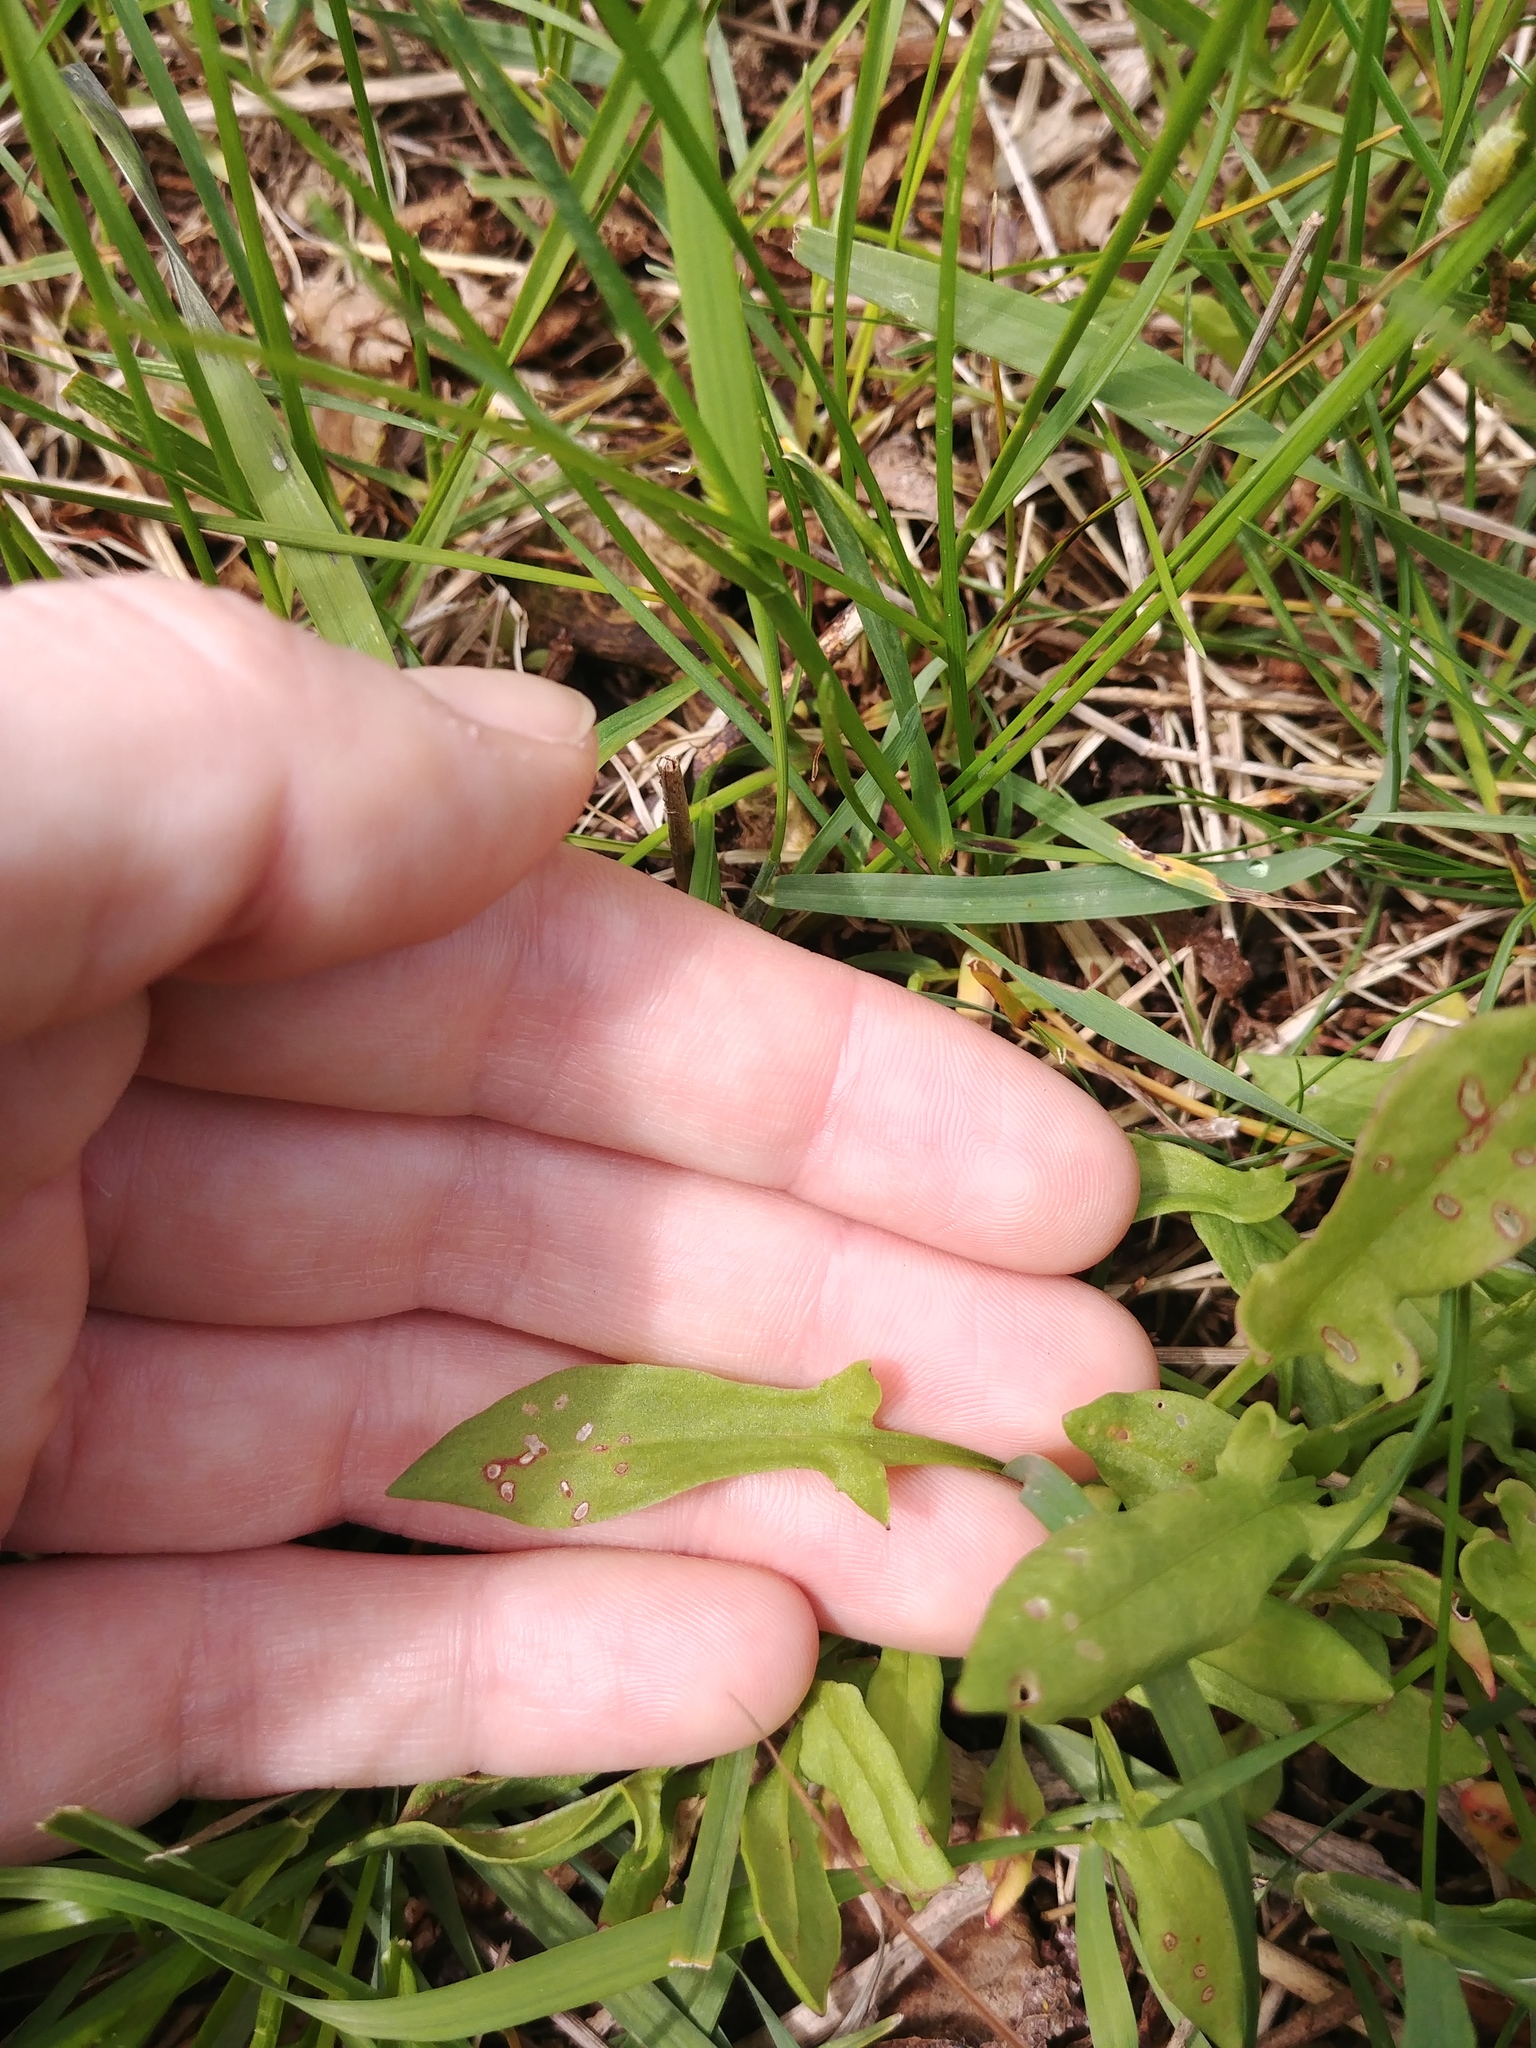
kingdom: Plantae
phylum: Tracheophyta
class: Magnoliopsida
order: Caryophyllales
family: Polygonaceae
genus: Rumex
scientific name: Rumex acetosella
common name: Common sheep sorrel
